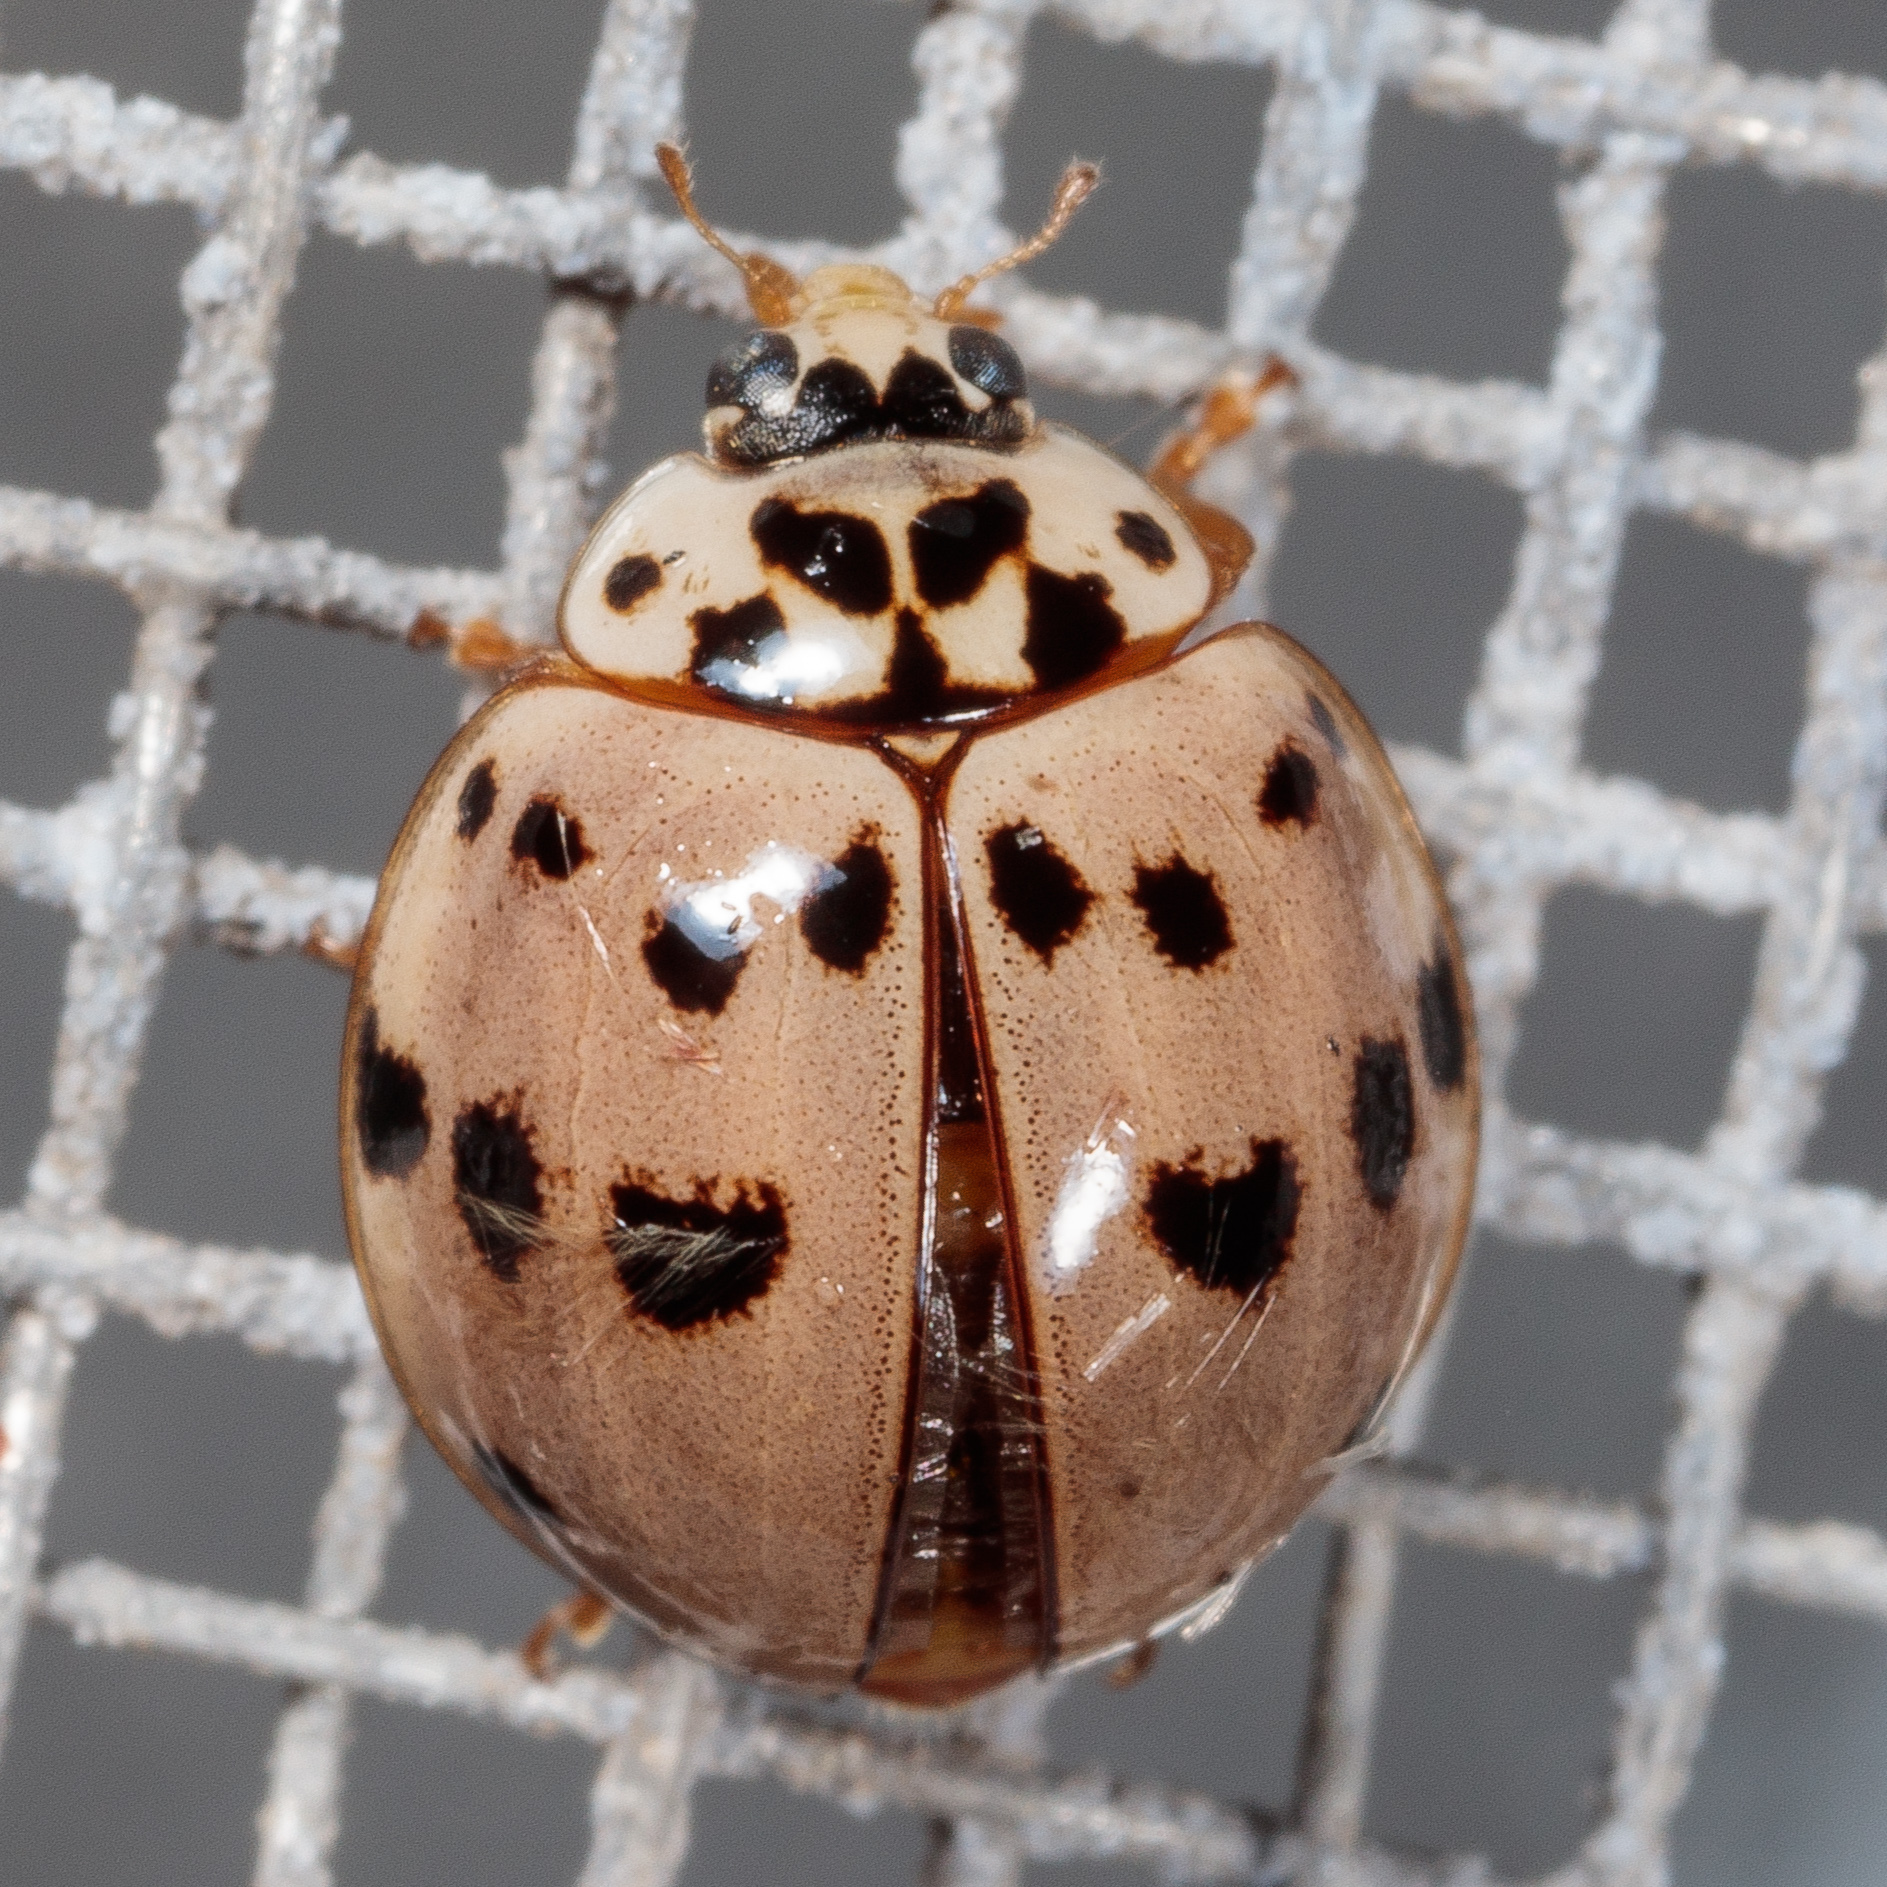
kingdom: Animalia
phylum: Arthropoda
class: Insecta
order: Coleoptera
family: Coccinellidae
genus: Olla
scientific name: Olla v-nigrum
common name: Ashy gray lady beetle
